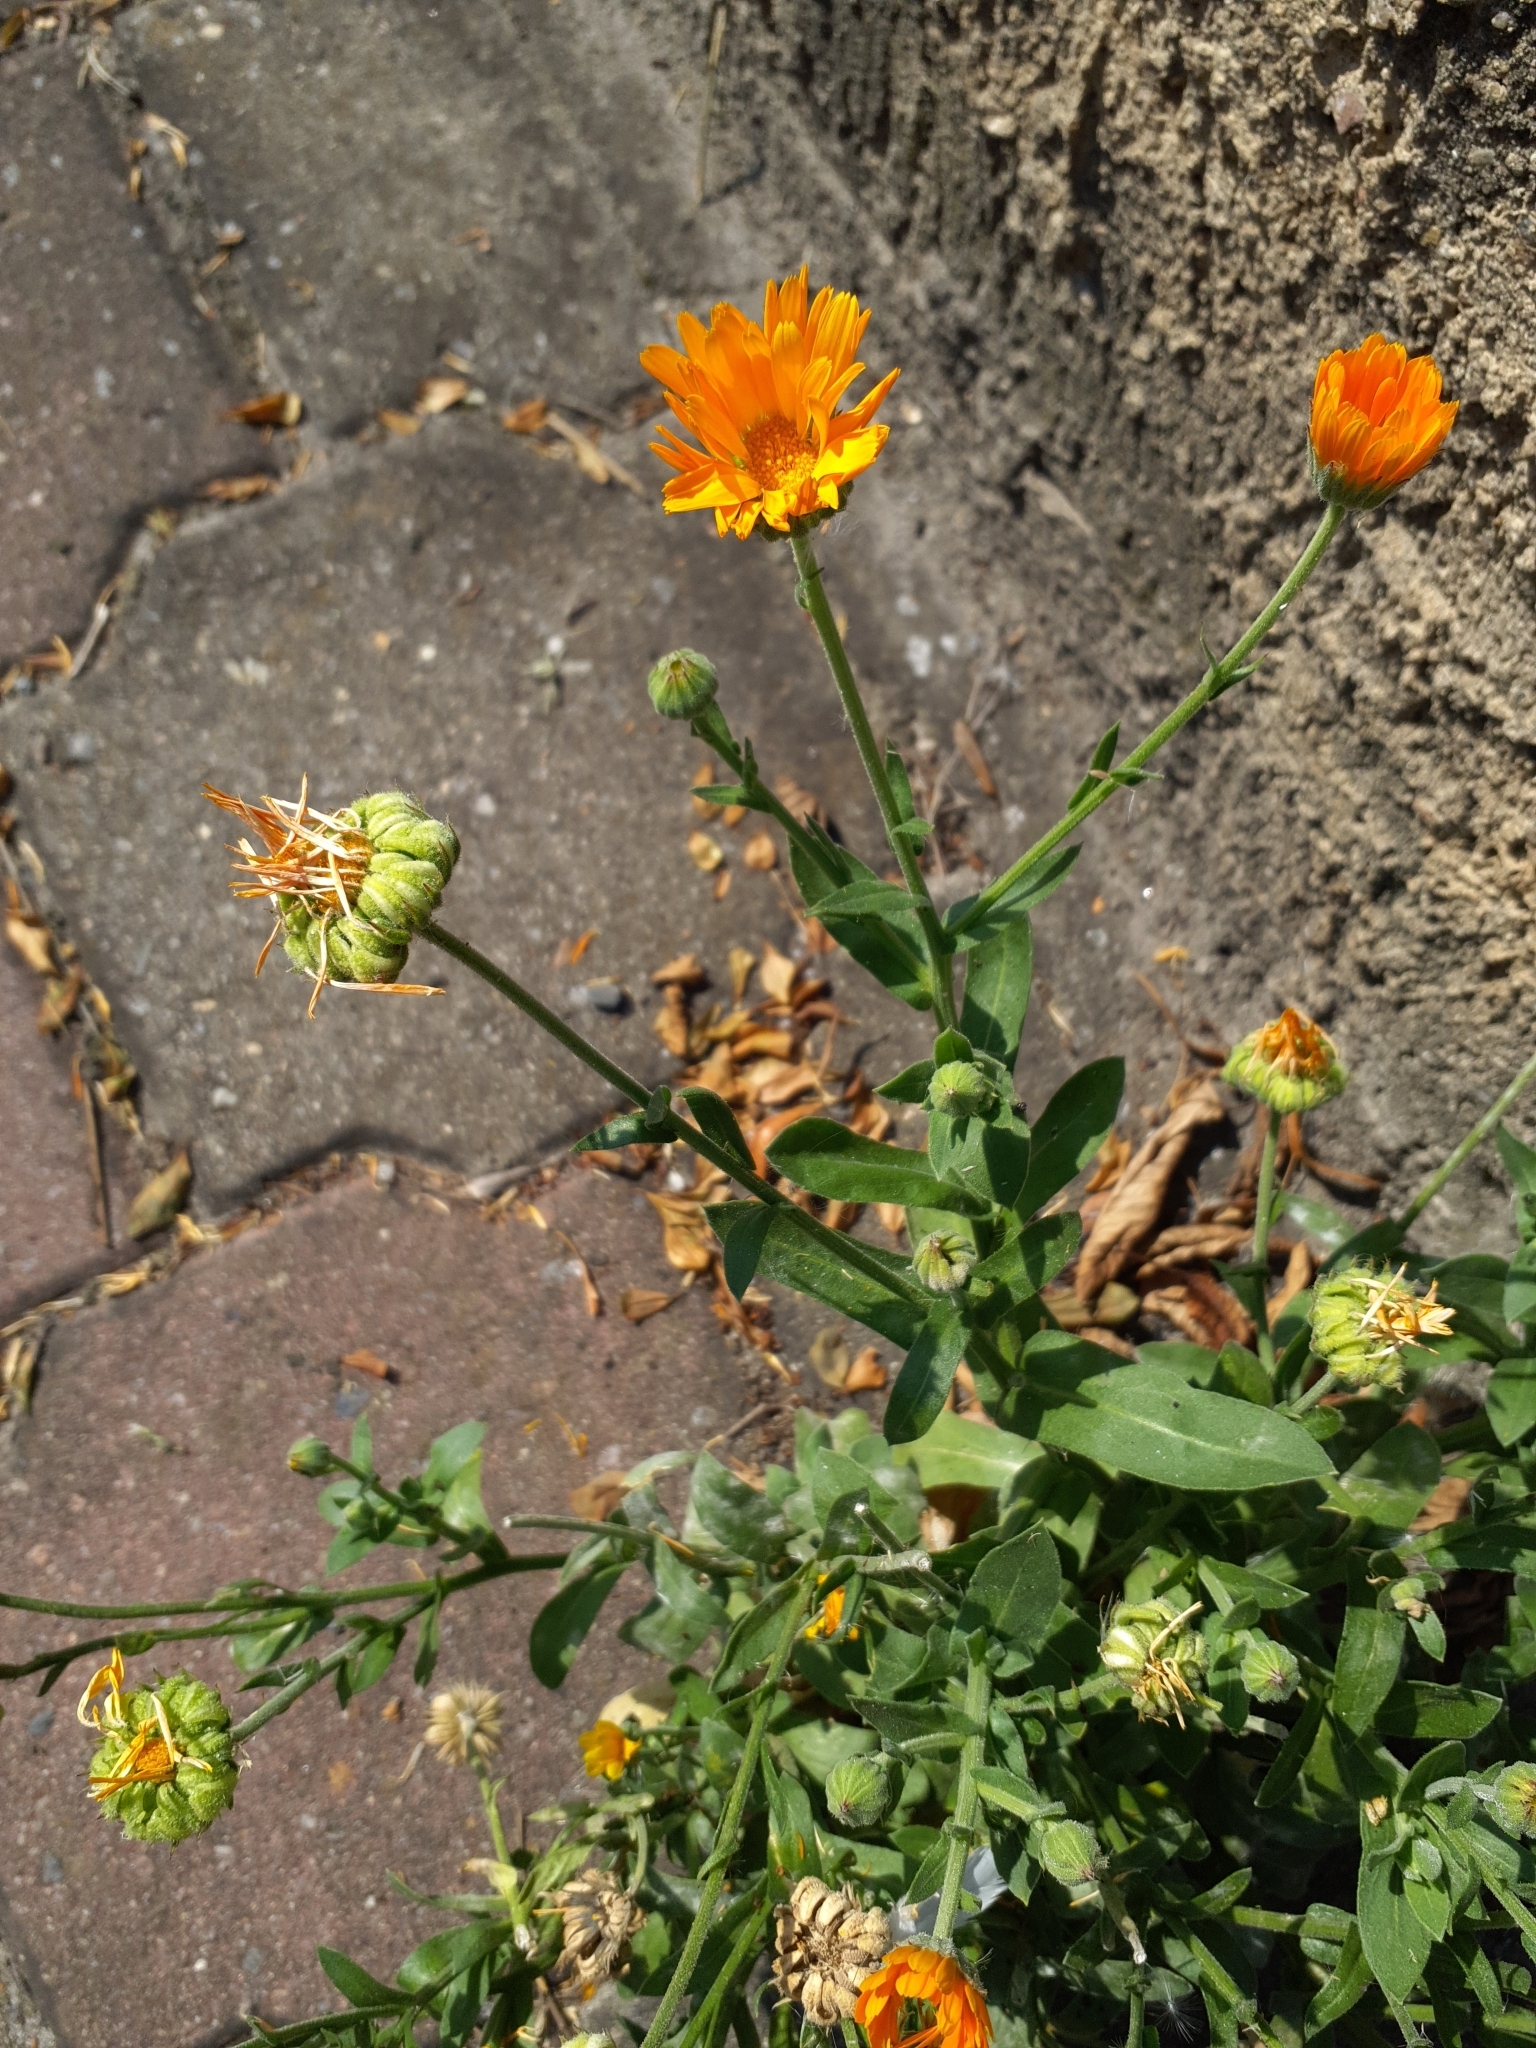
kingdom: Plantae
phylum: Tracheophyta
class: Magnoliopsida
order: Asterales
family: Asteraceae
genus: Calendula
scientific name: Calendula officinalis
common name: Pot marigold
